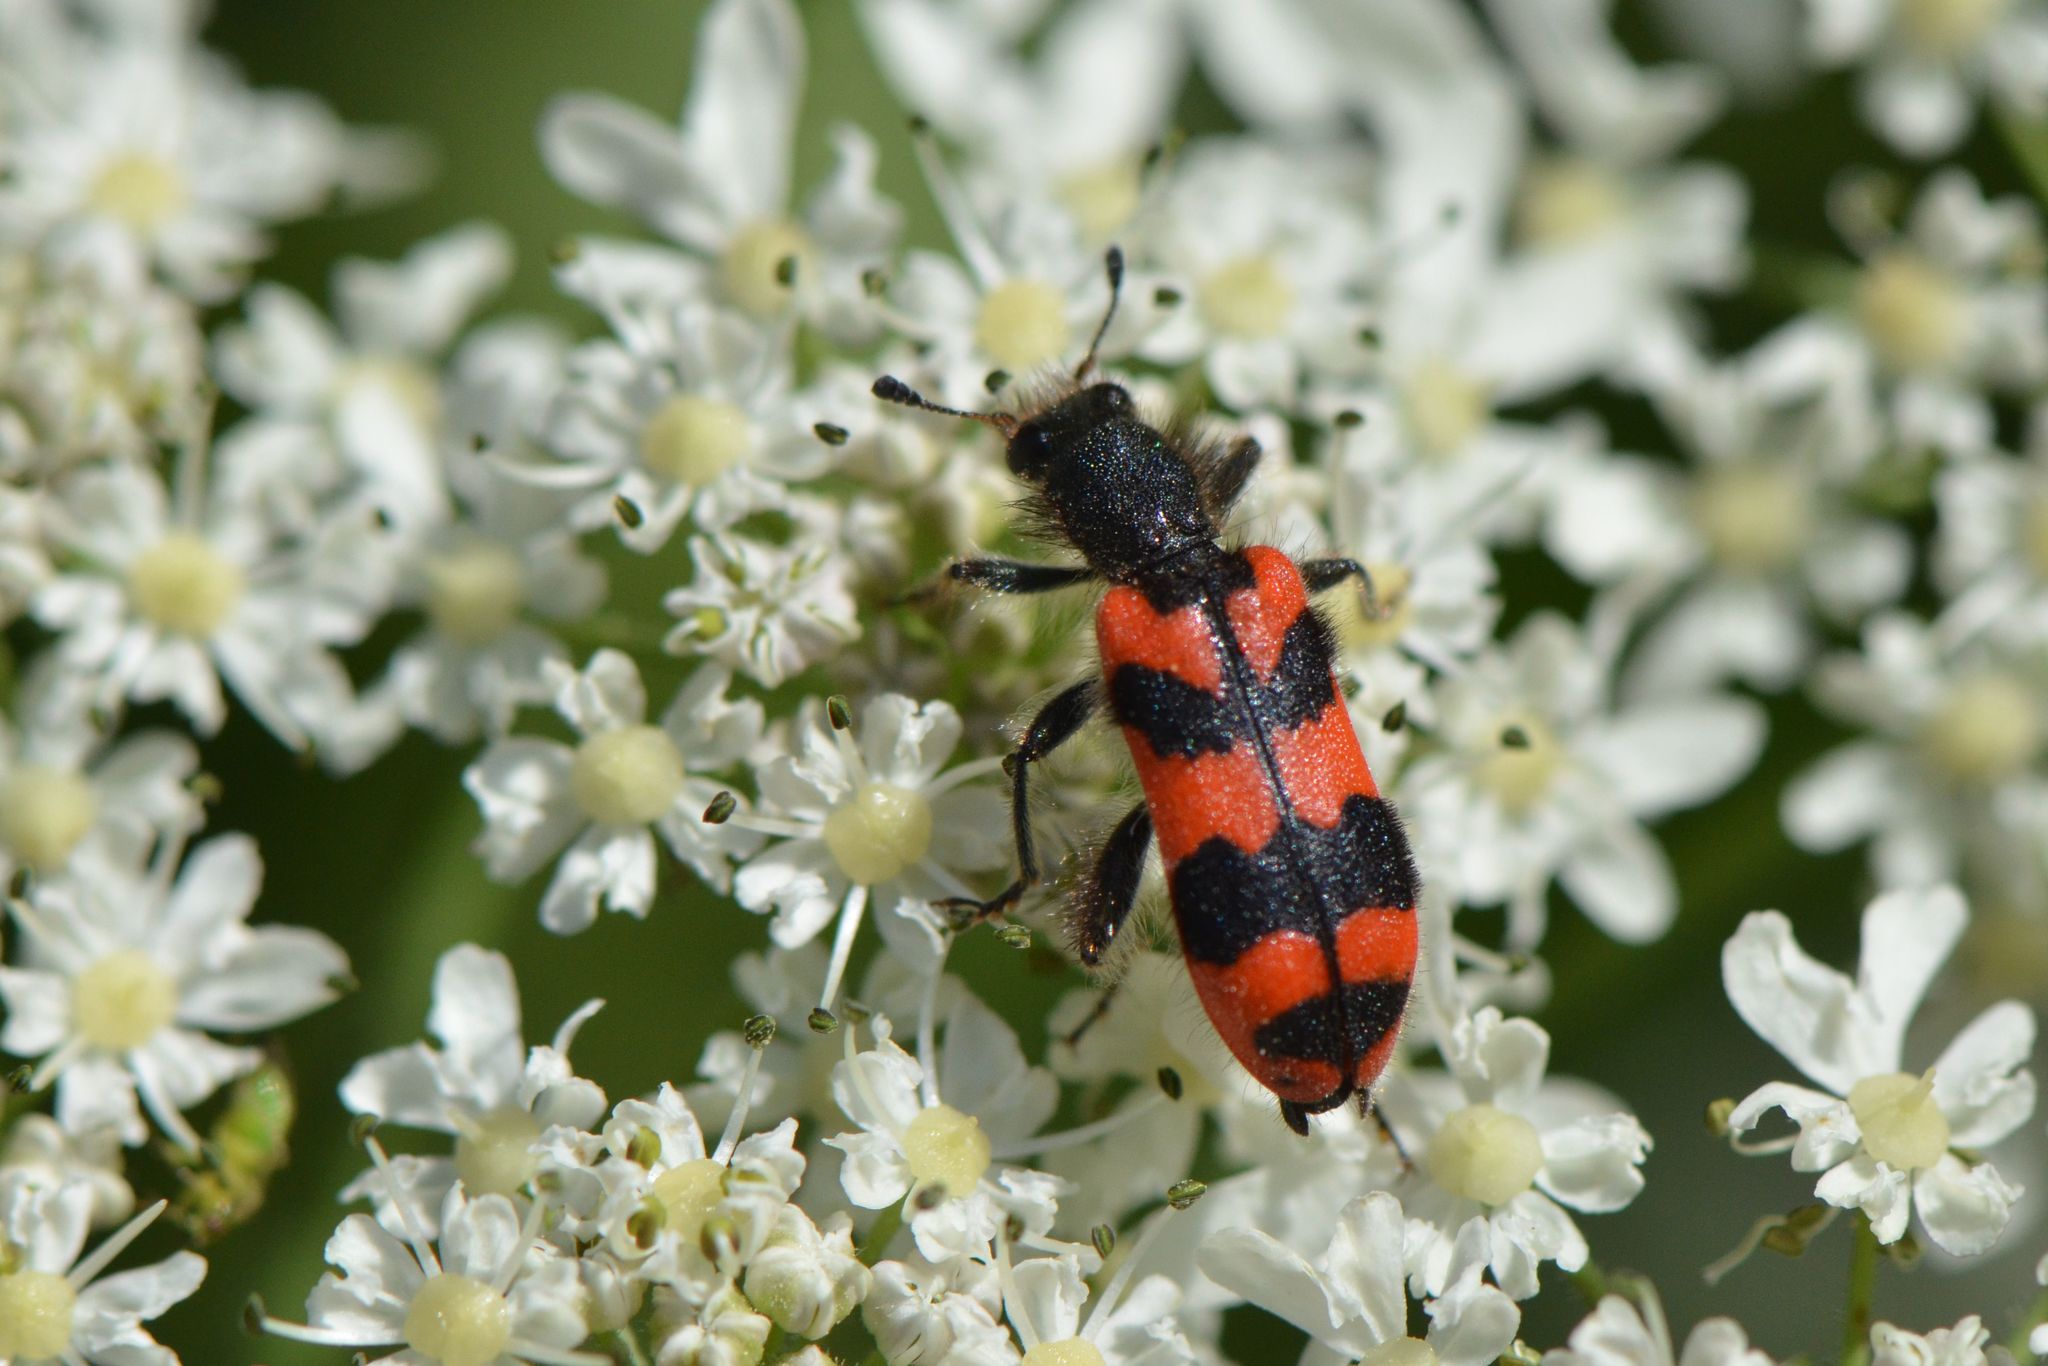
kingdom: Animalia
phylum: Arthropoda
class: Insecta
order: Coleoptera
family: Cleridae
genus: Trichodes
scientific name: Trichodes alvearius
